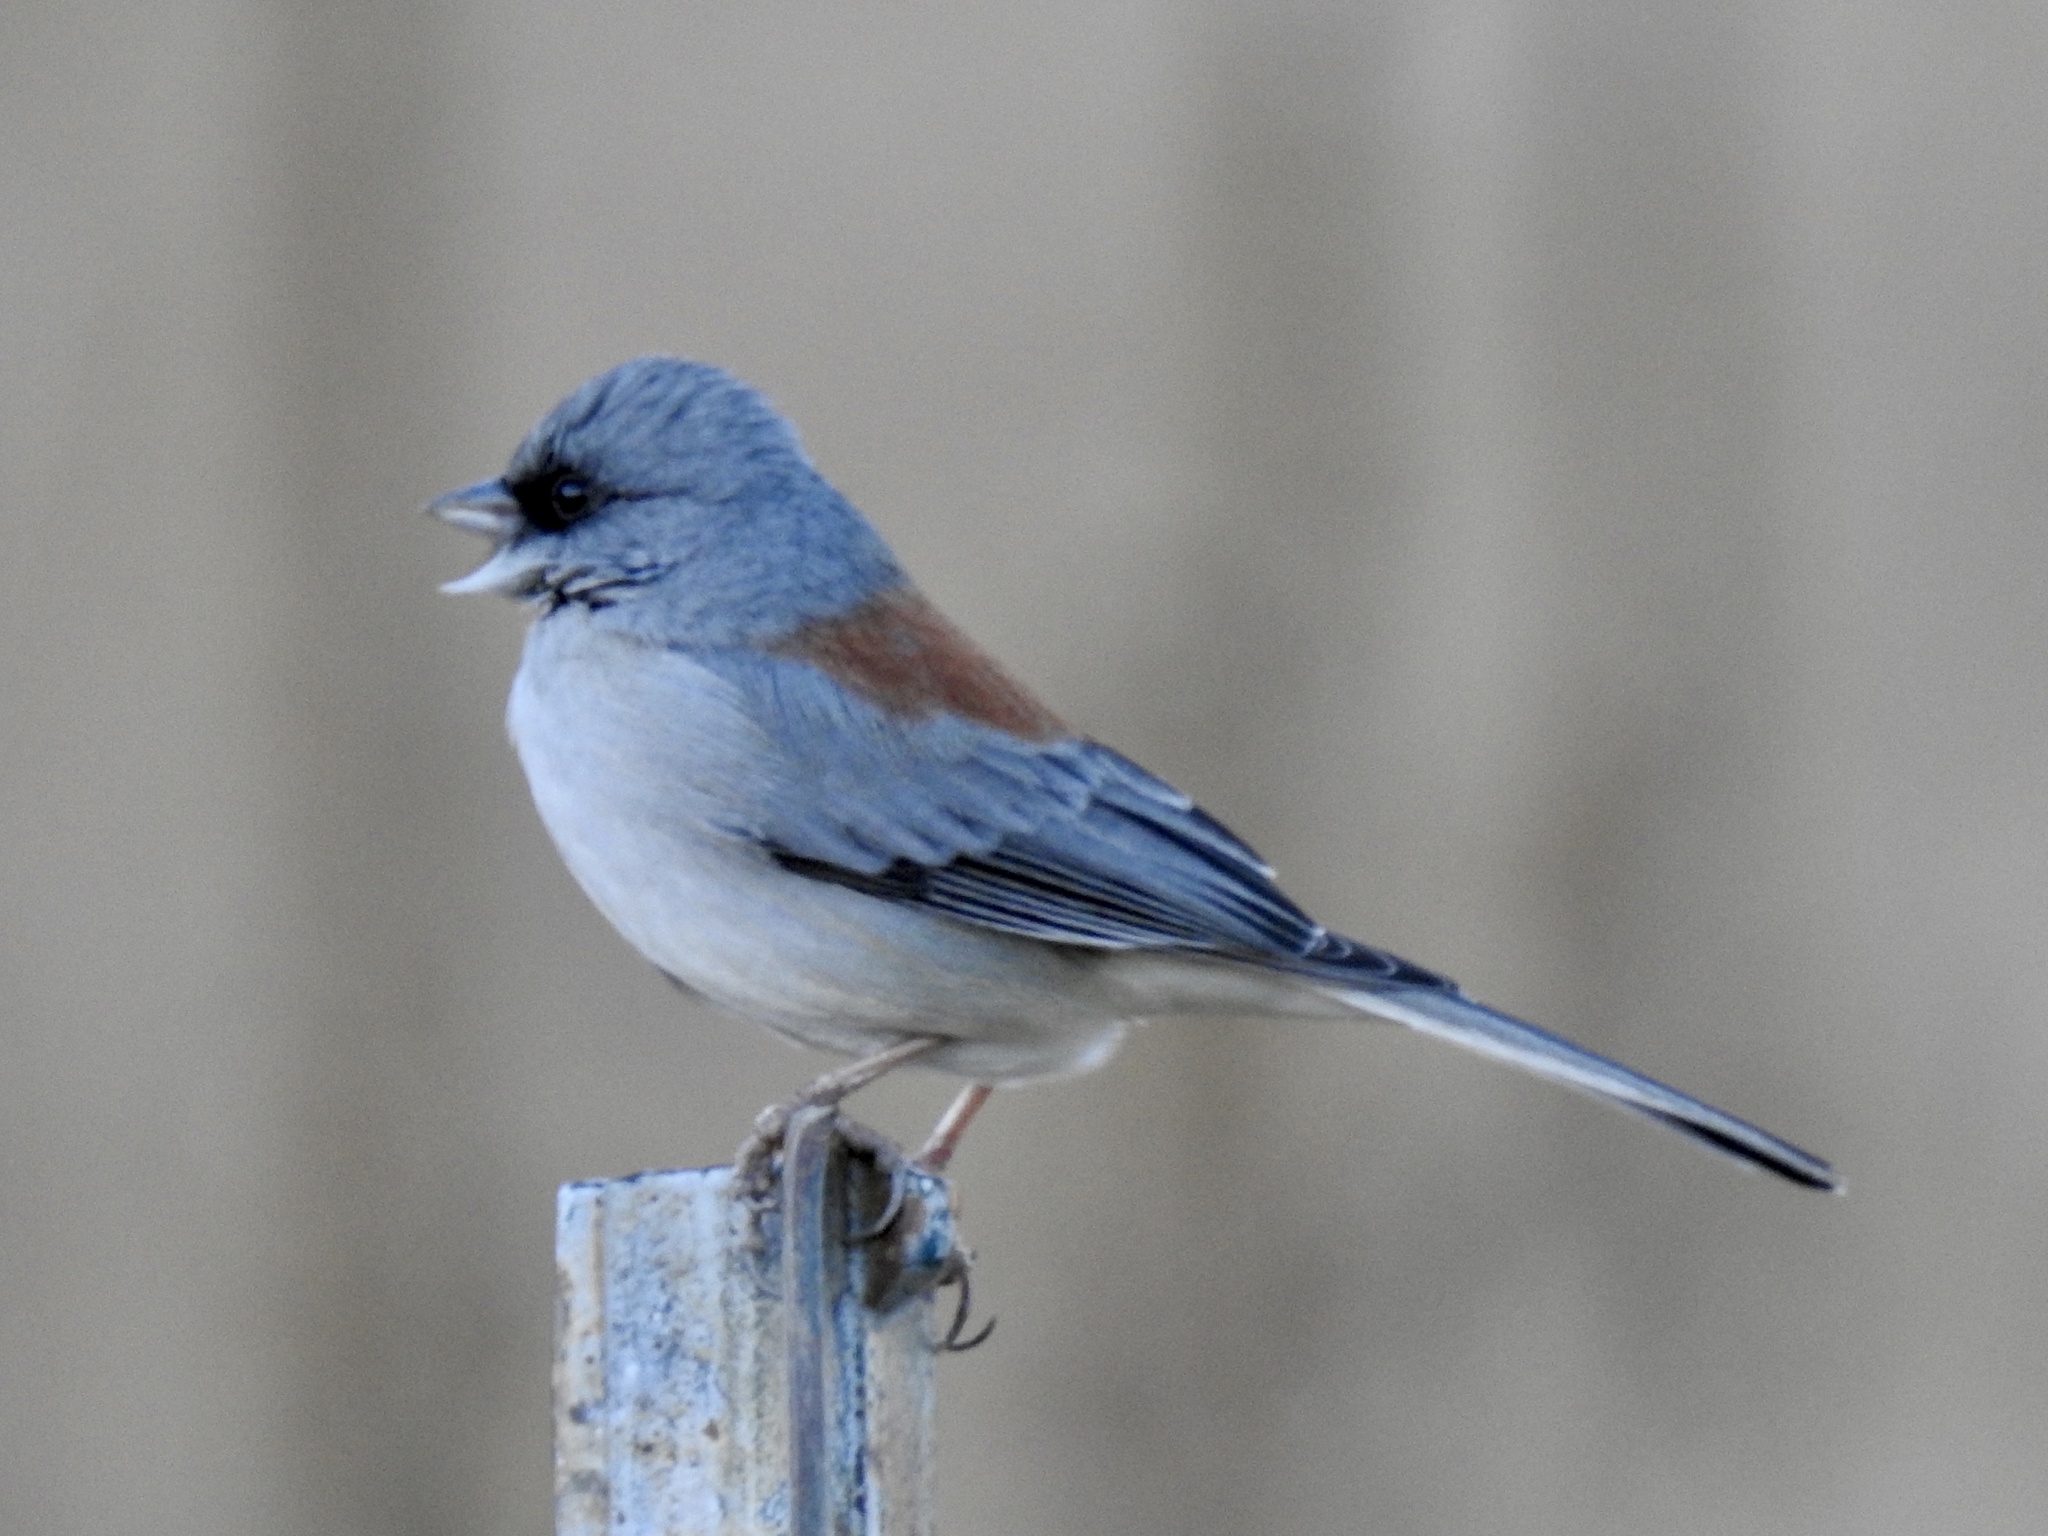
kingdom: Animalia
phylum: Chordata
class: Aves
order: Passeriformes
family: Passerellidae
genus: Junco
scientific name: Junco hyemalis
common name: Dark-eyed junco
